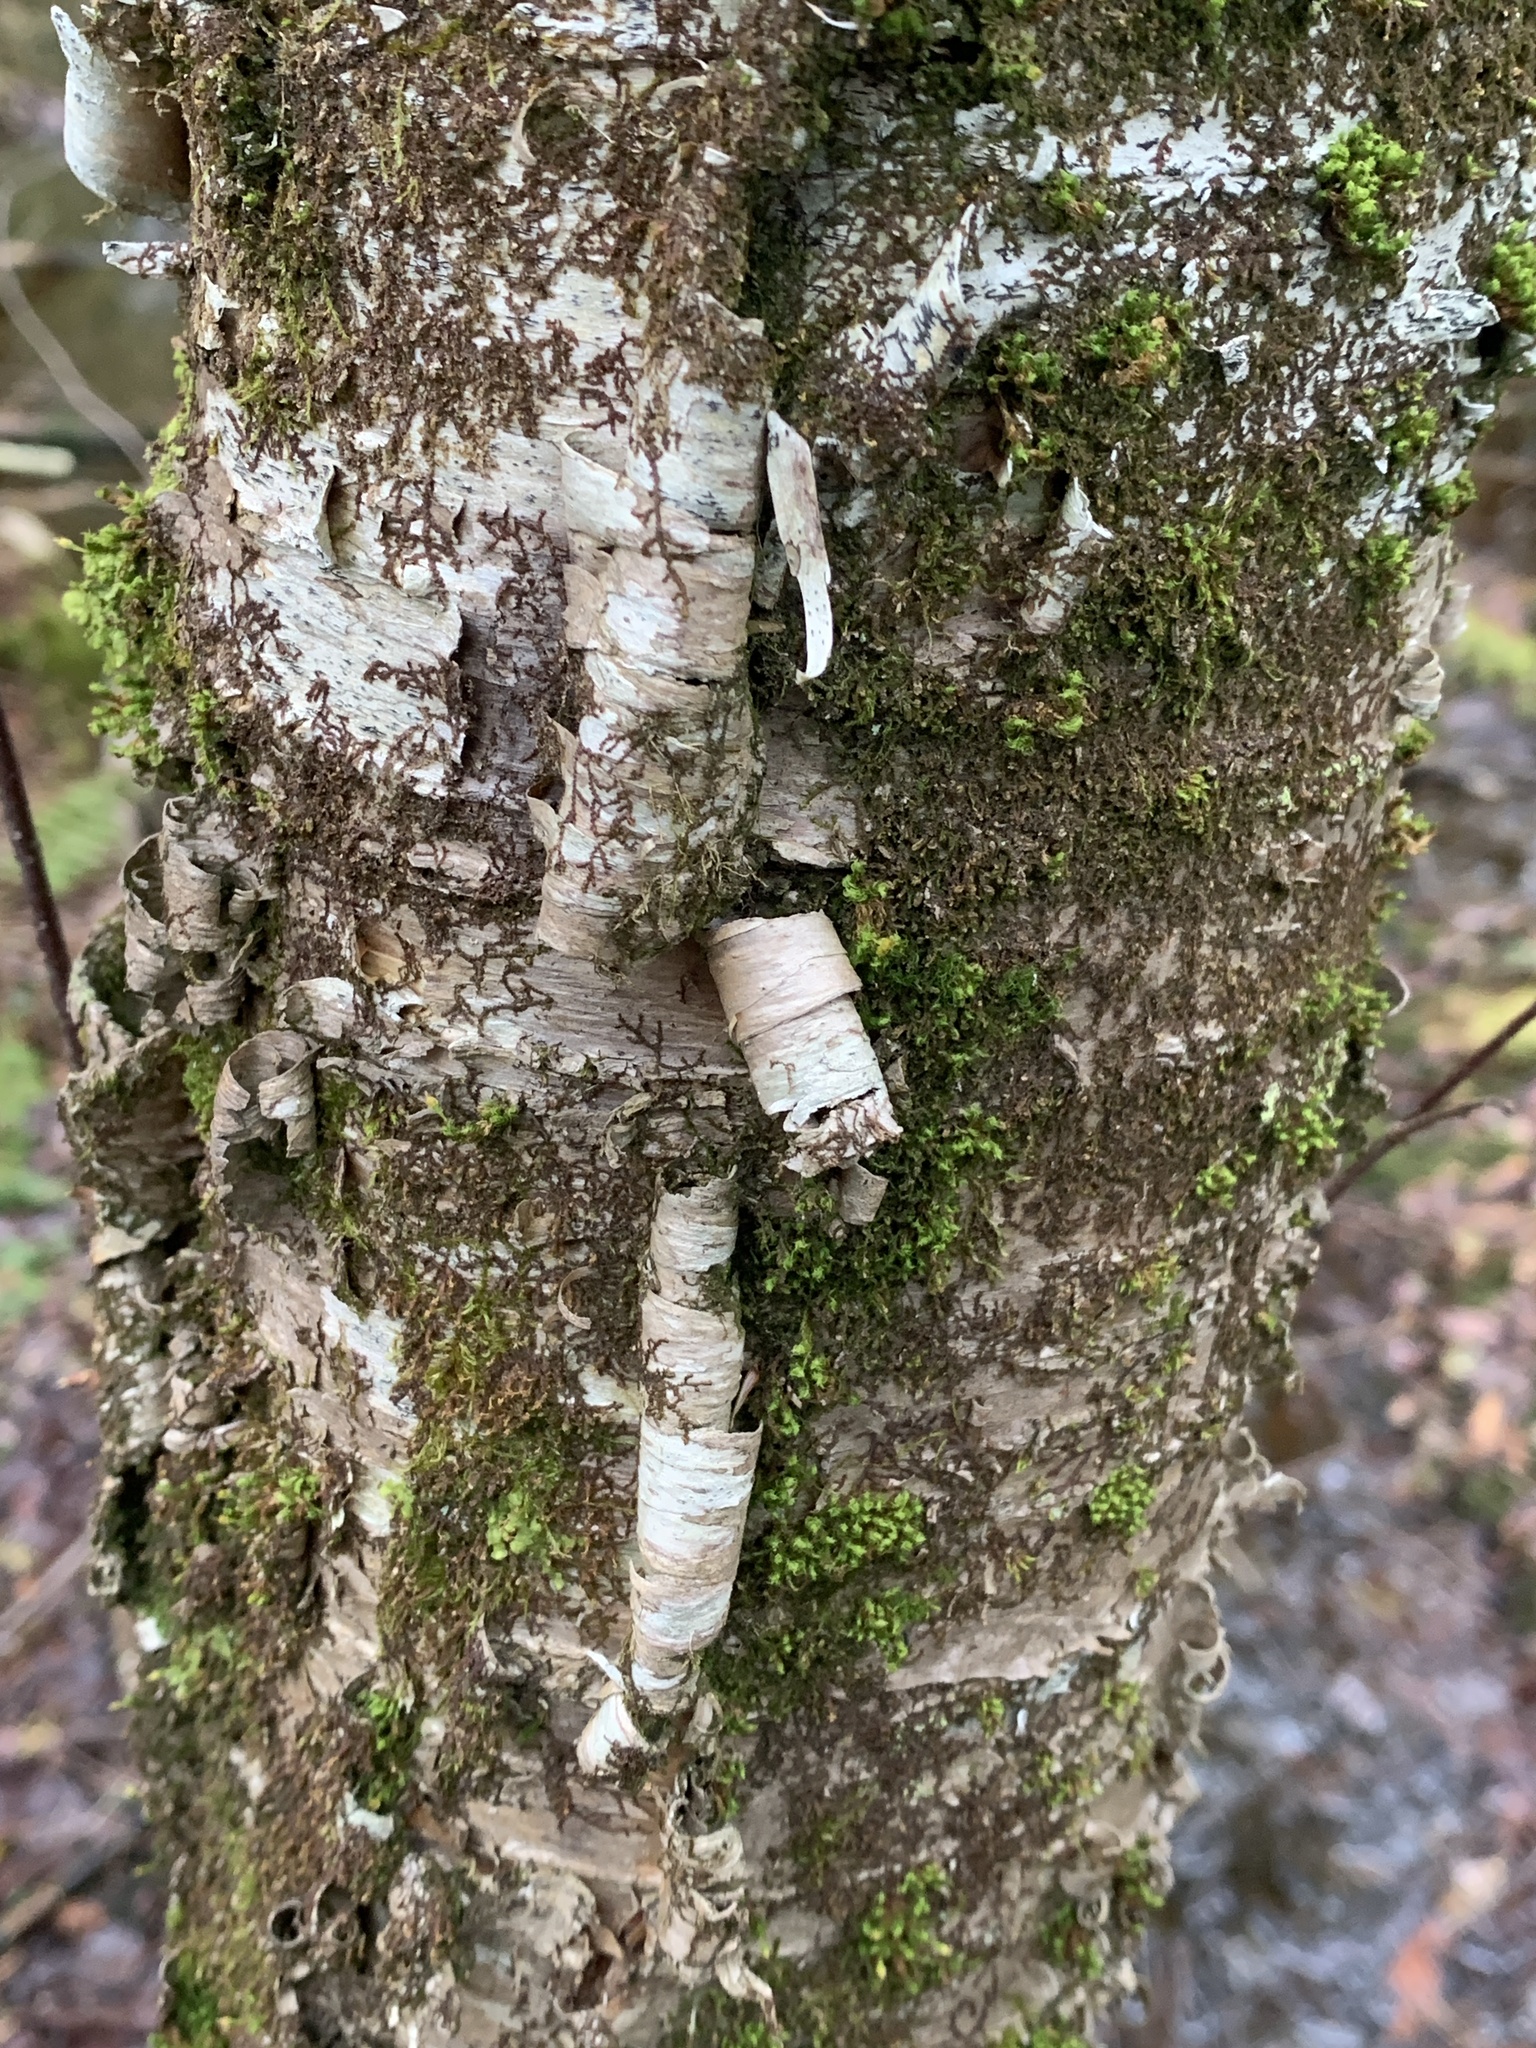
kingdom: Plantae
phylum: Tracheophyta
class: Magnoliopsida
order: Fagales
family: Betulaceae
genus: Betula
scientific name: Betula alleghaniensis
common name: Yellow birch
